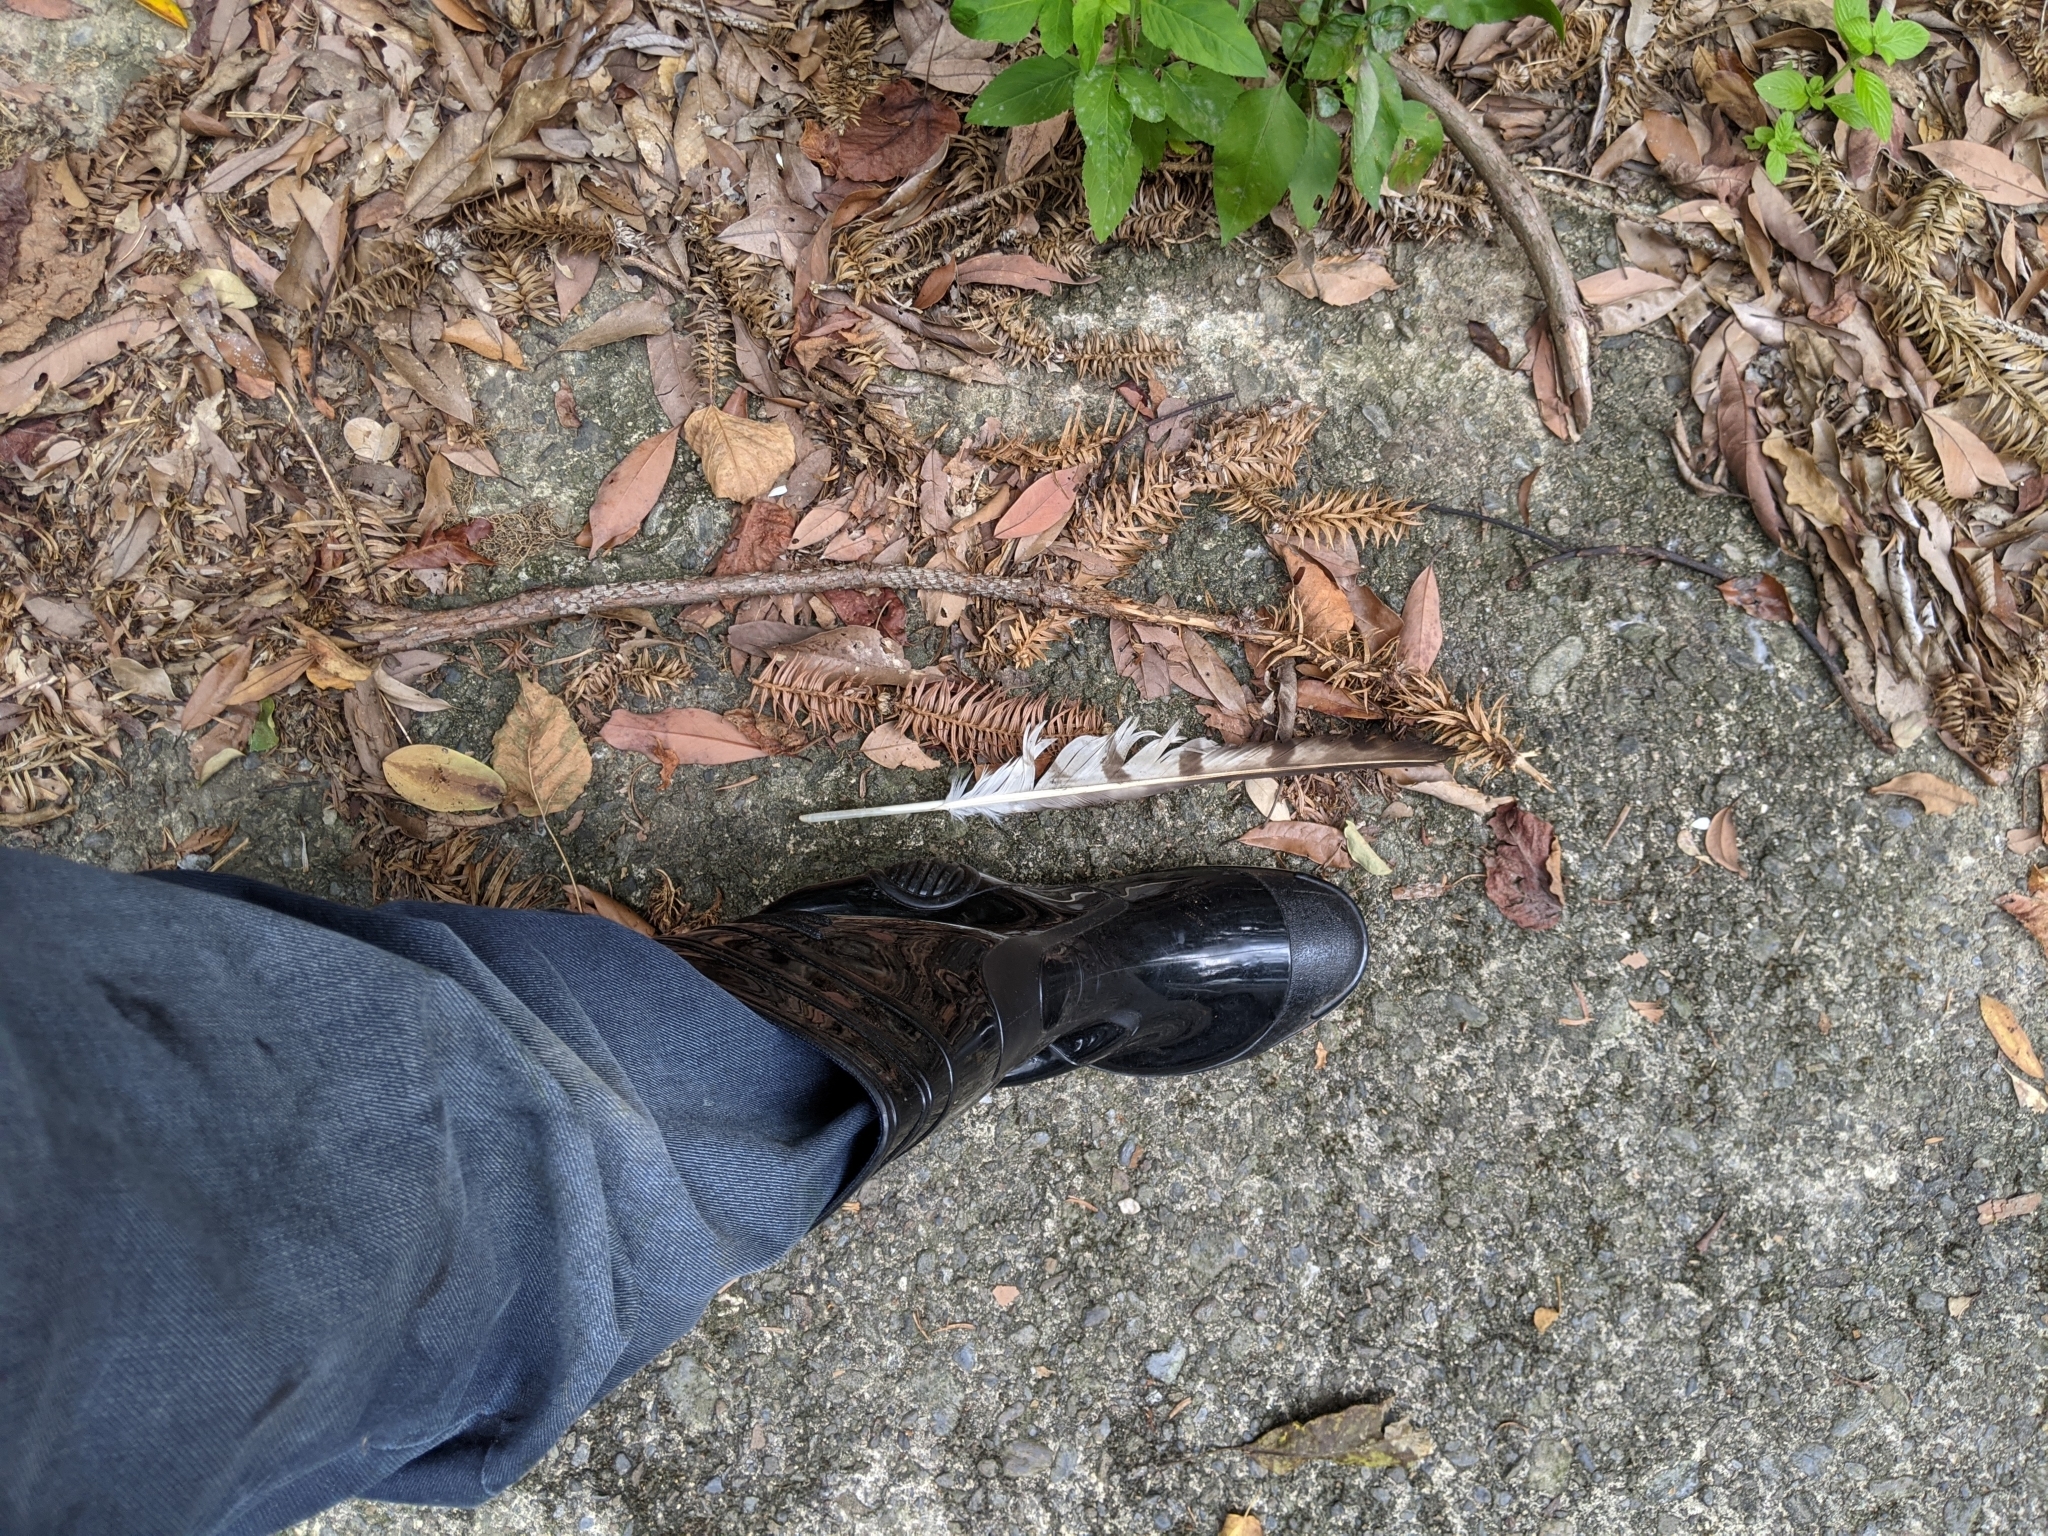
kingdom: Animalia
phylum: Chordata
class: Aves
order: Accipitriformes
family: Accipitridae
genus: Pernis
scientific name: Pernis ptilorhynchus
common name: Crested honey buzzard
